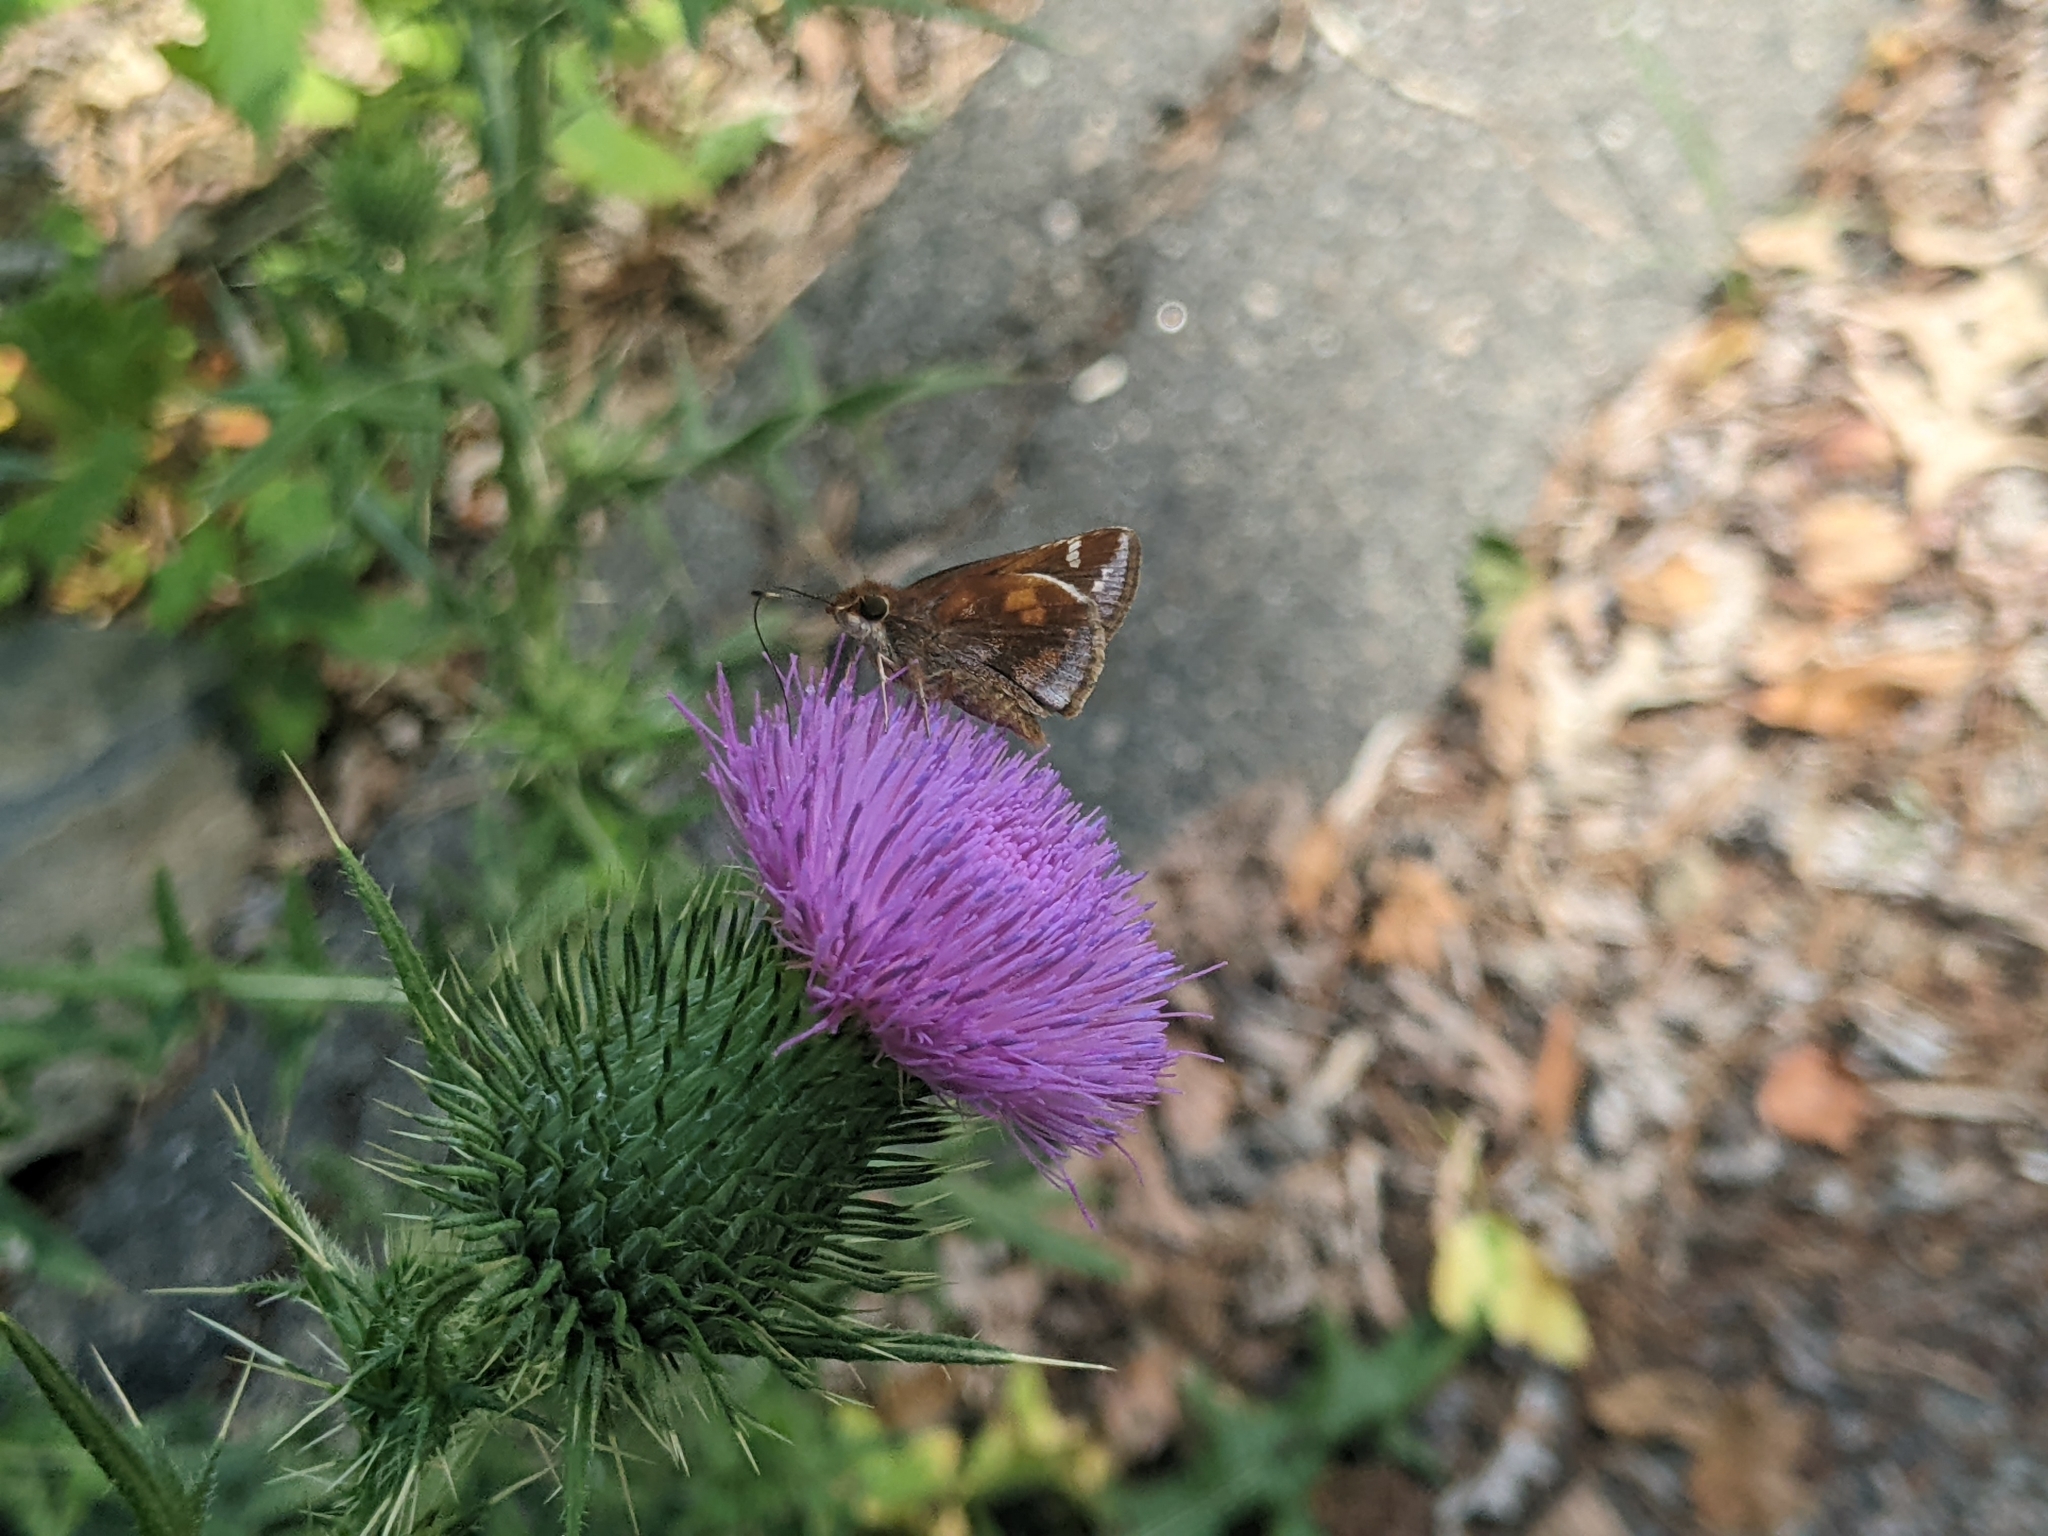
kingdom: Animalia
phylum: Arthropoda
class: Insecta
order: Lepidoptera
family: Hesperiidae
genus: Lon
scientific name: Lon zabulon
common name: Zabulon skipper
